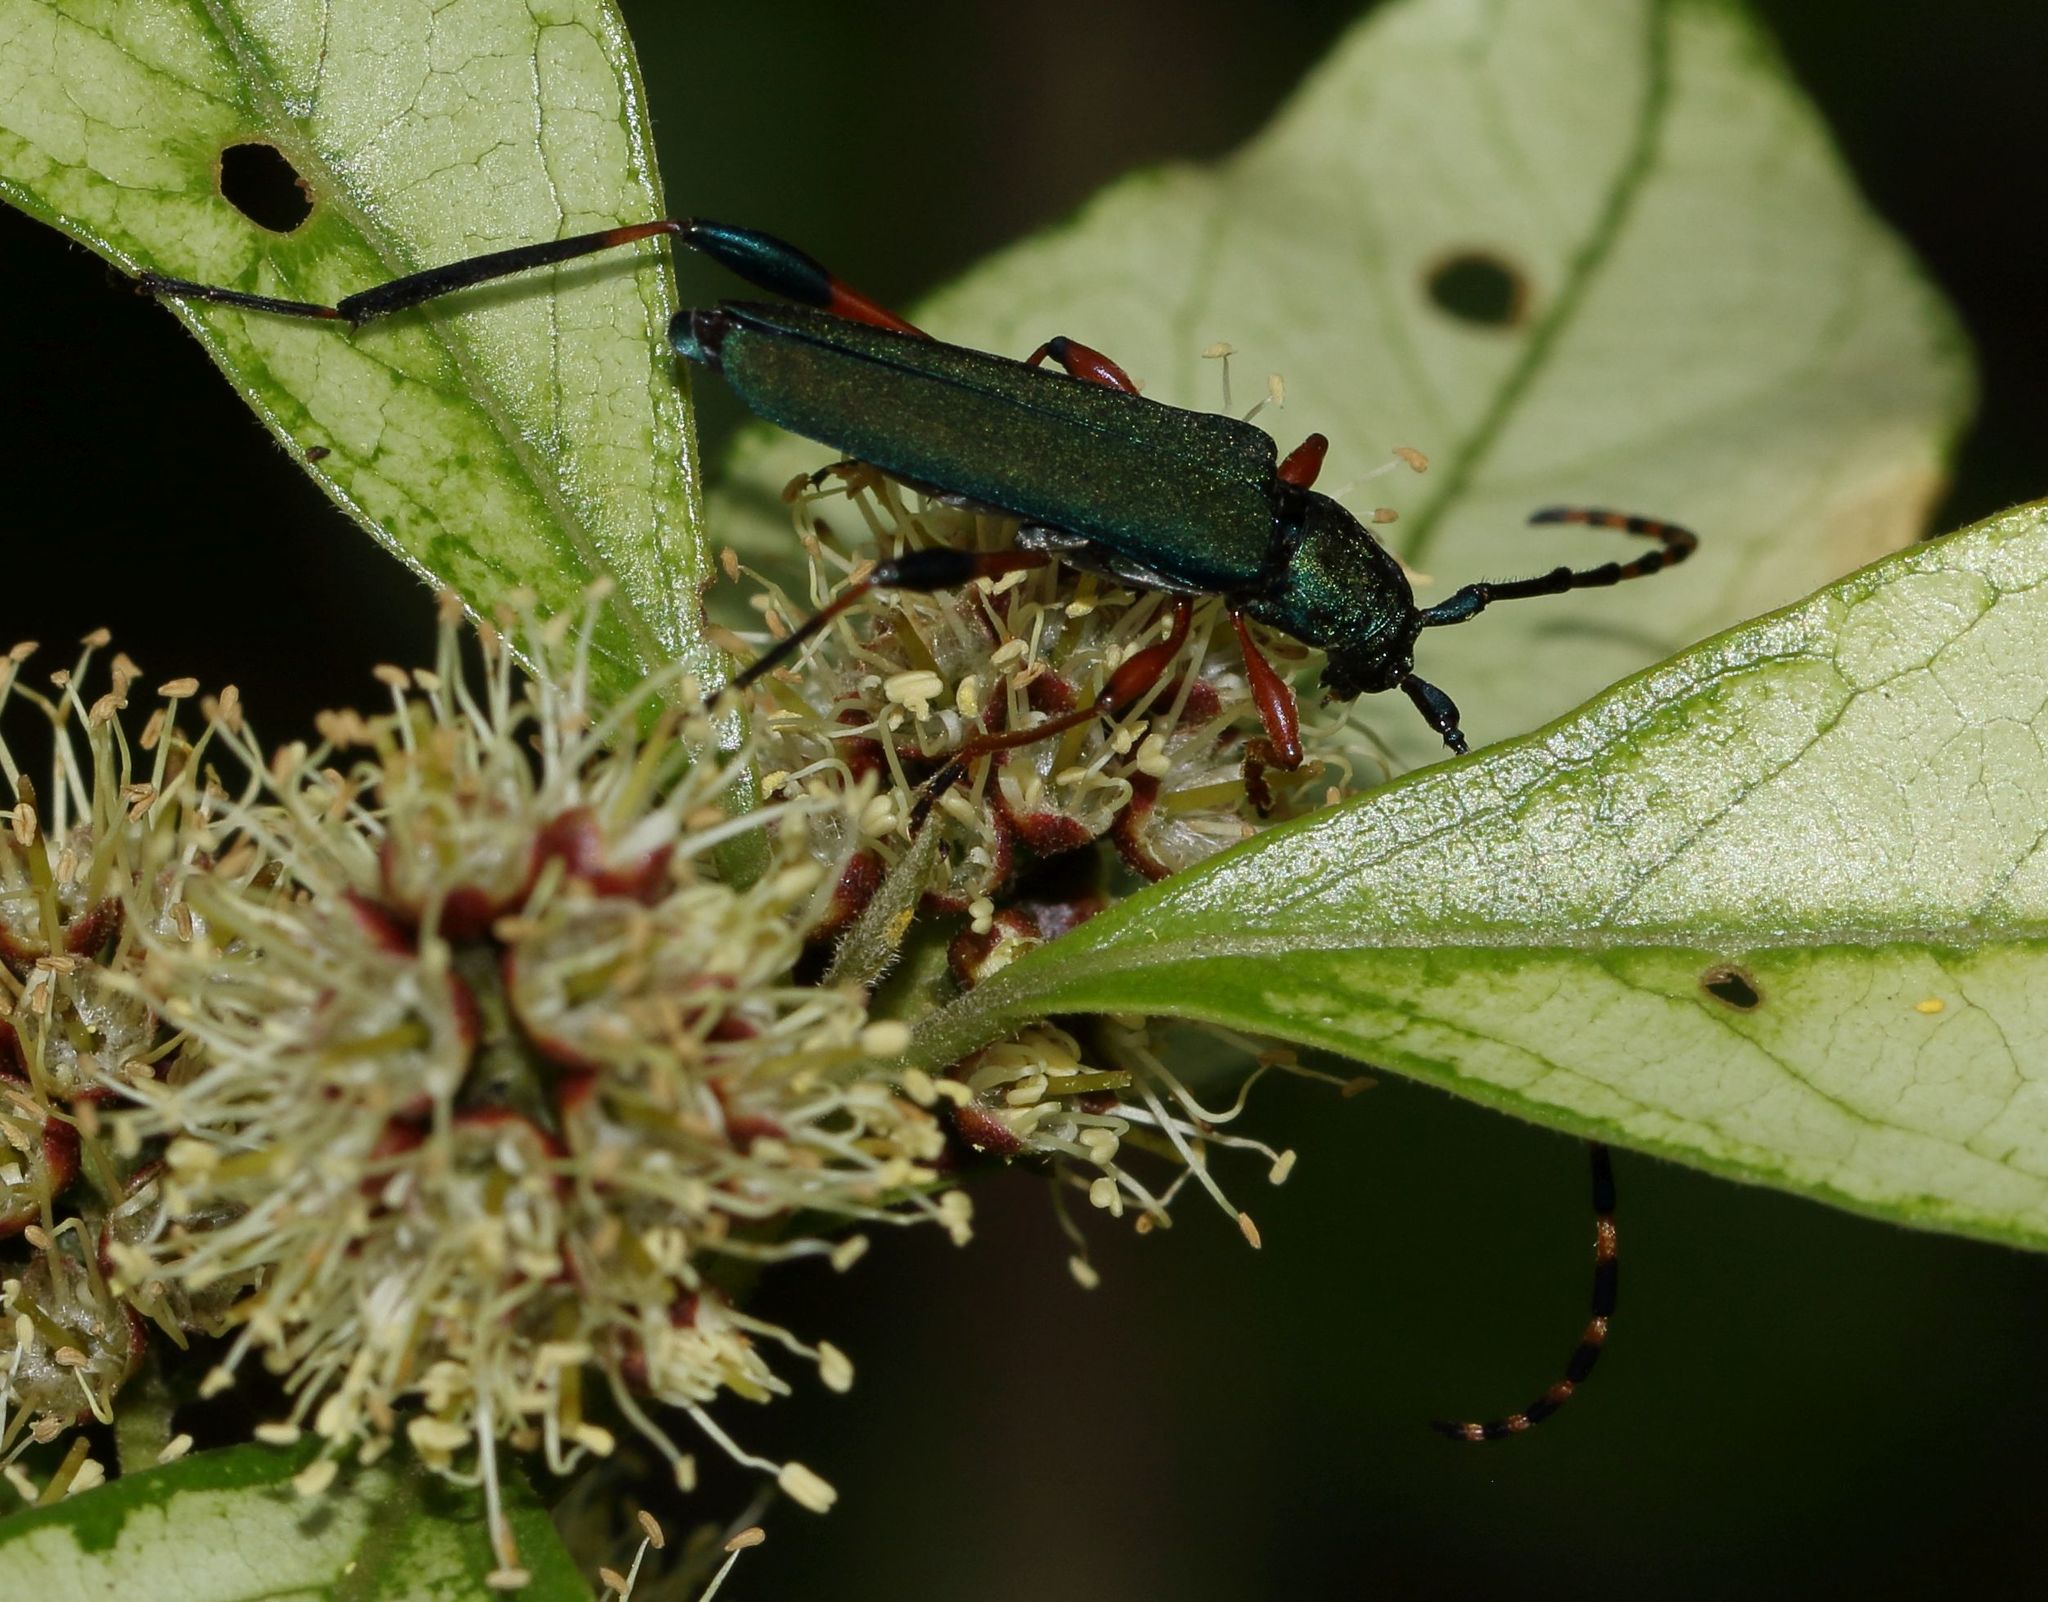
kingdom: Animalia
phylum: Arthropoda
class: Insecta
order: Coleoptera
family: Cerambycidae
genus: Litopus
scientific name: Litopus latipes
